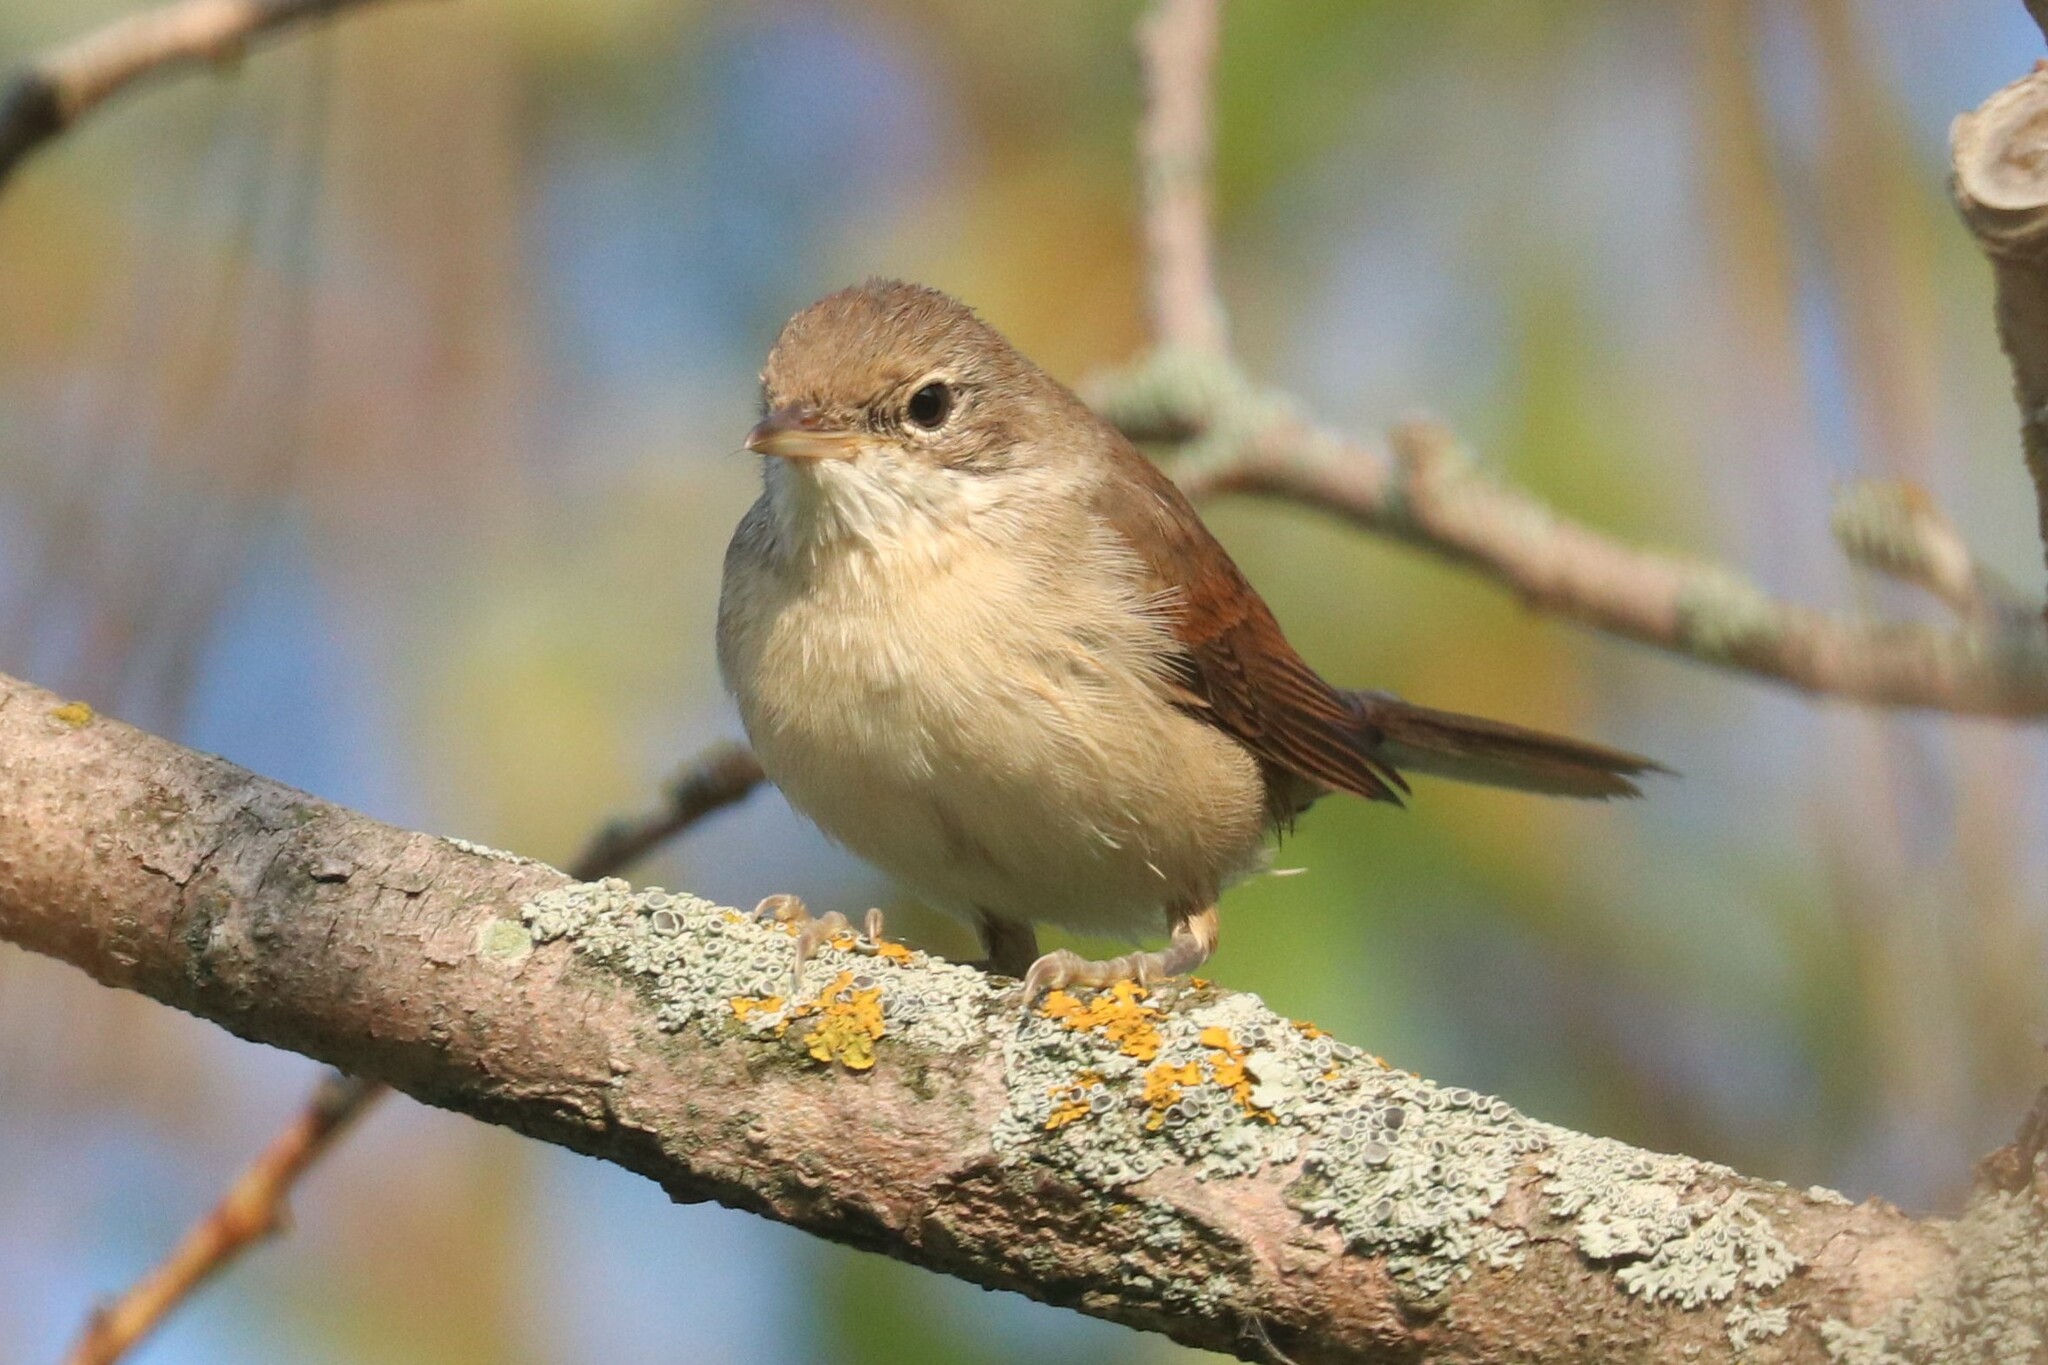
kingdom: Animalia
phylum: Chordata
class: Aves
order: Passeriformes
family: Sylviidae
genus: Sylvia
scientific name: Sylvia communis
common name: Common whitethroat
